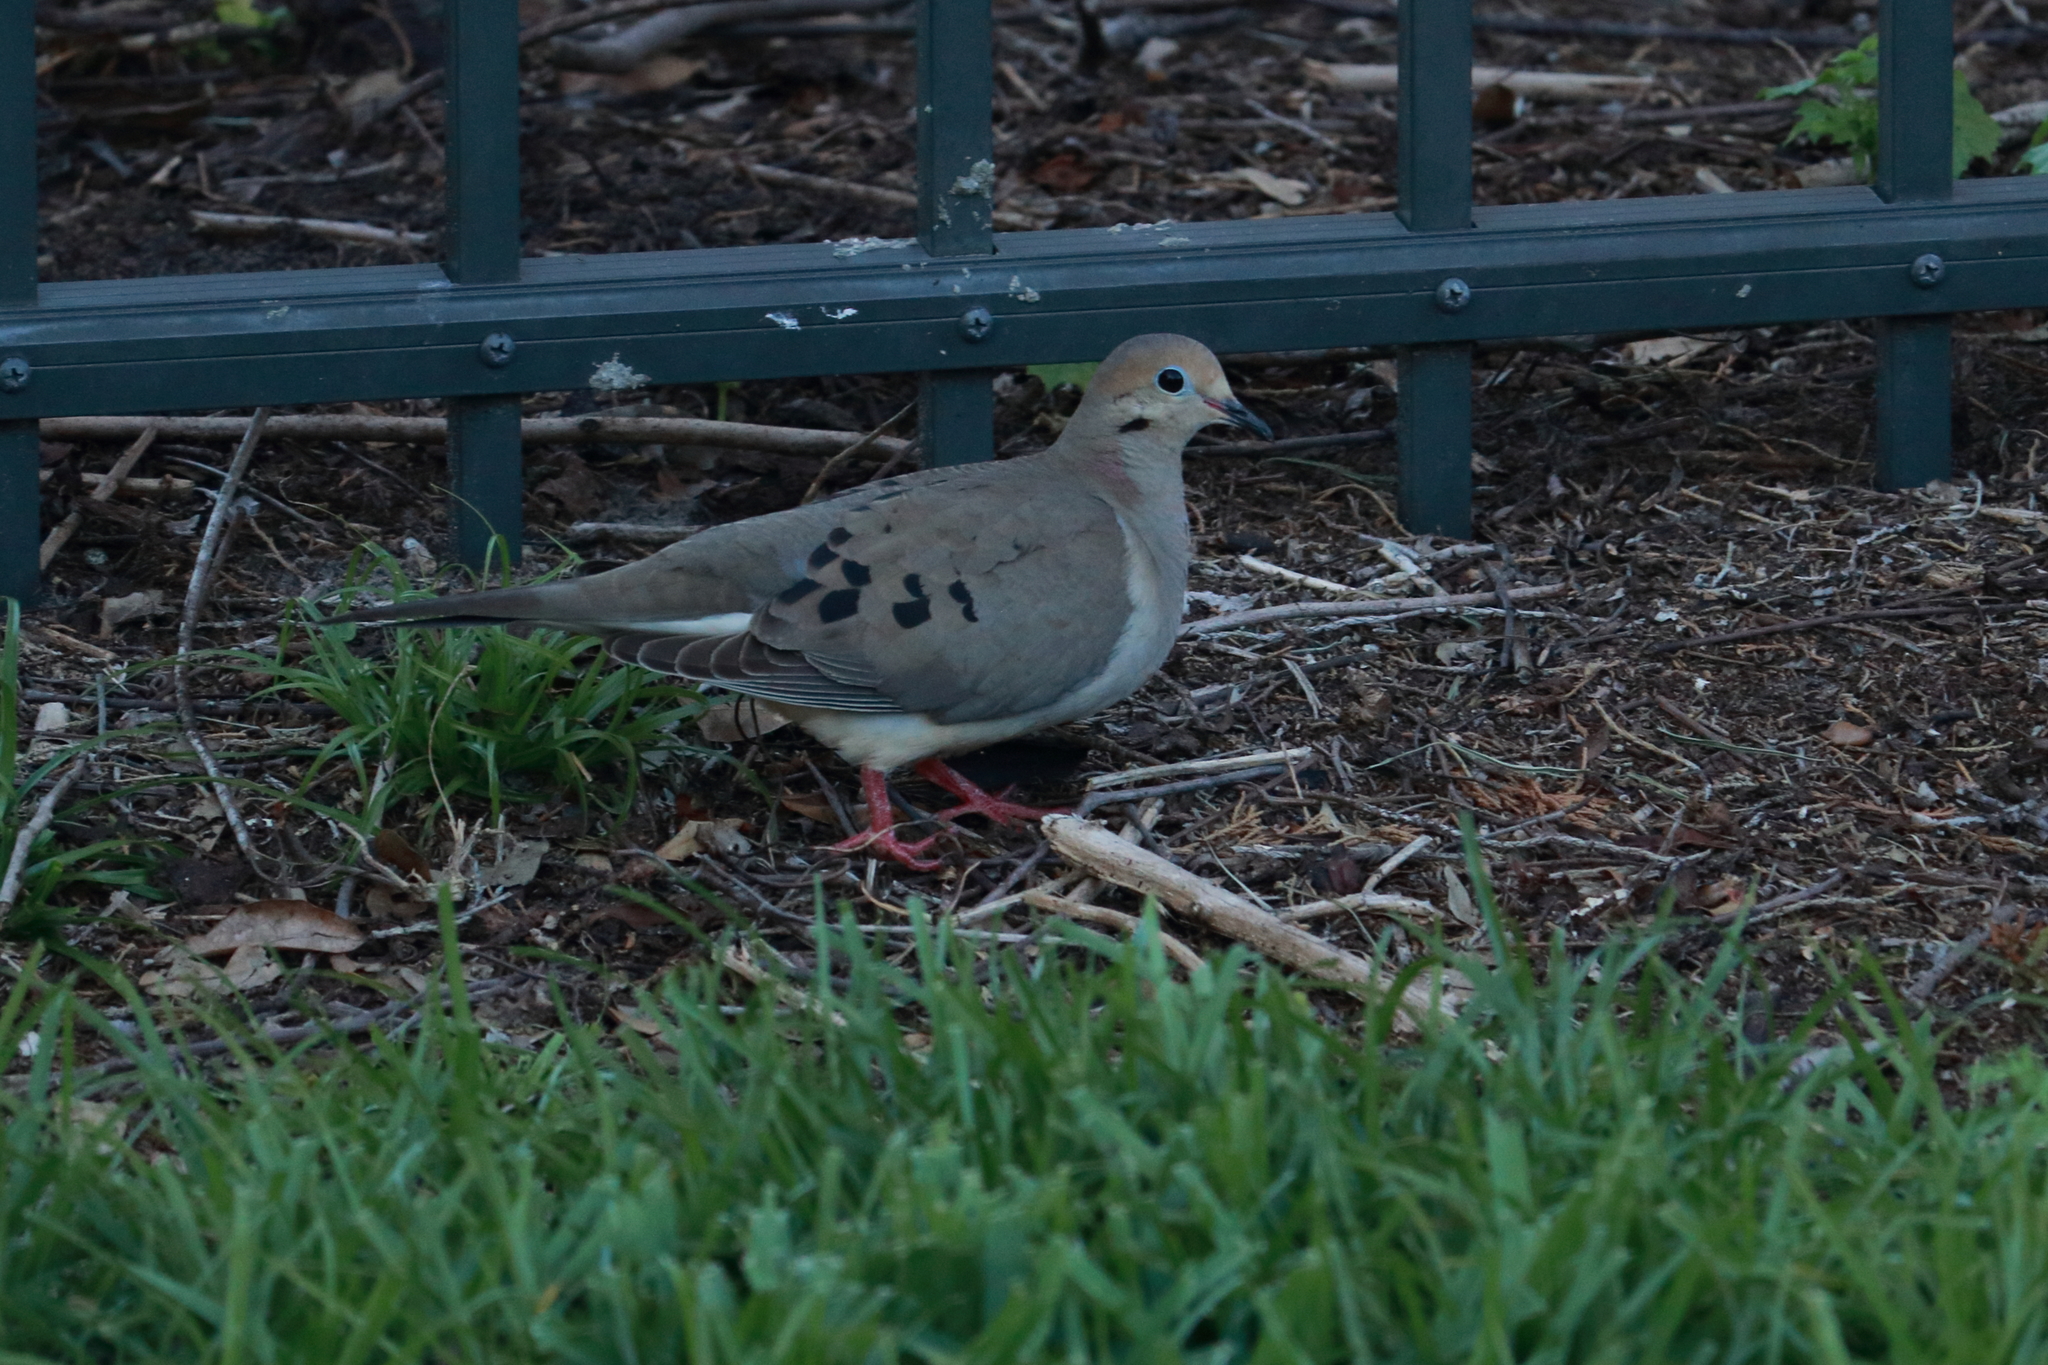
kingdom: Animalia
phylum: Chordata
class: Aves
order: Columbiformes
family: Columbidae
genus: Zenaida
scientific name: Zenaida macroura
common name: Mourning dove
